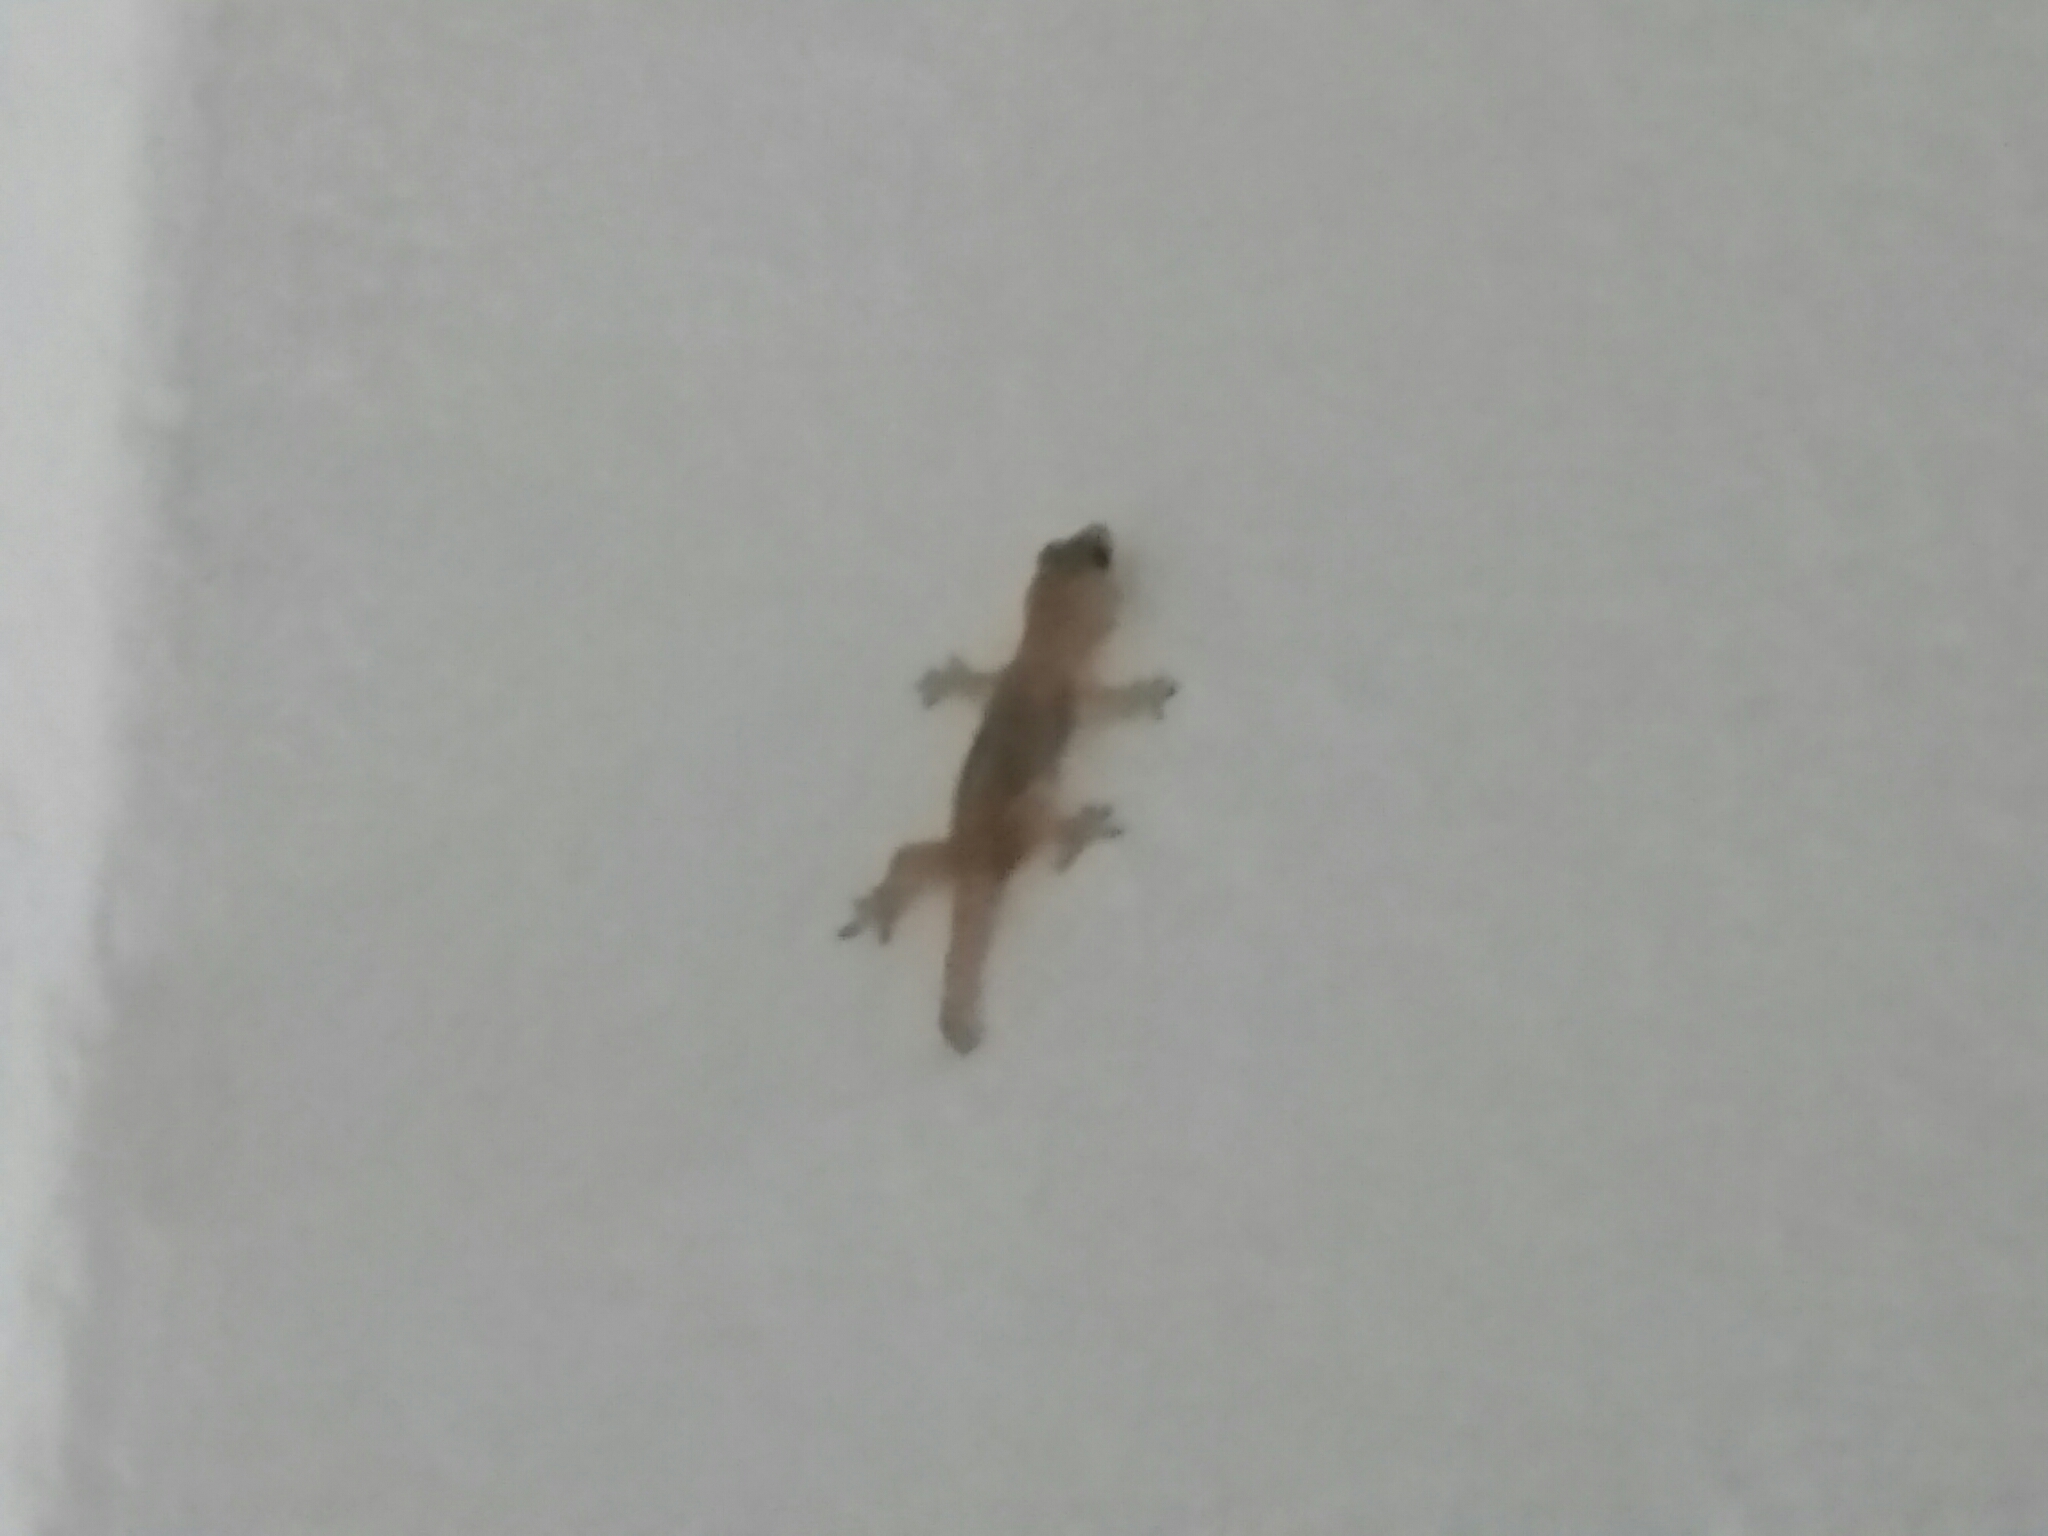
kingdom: Animalia
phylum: Chordata
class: Squamata
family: Gekkonidae
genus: Hemidactylus
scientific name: Hemidactylus mabouia
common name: House gecko
